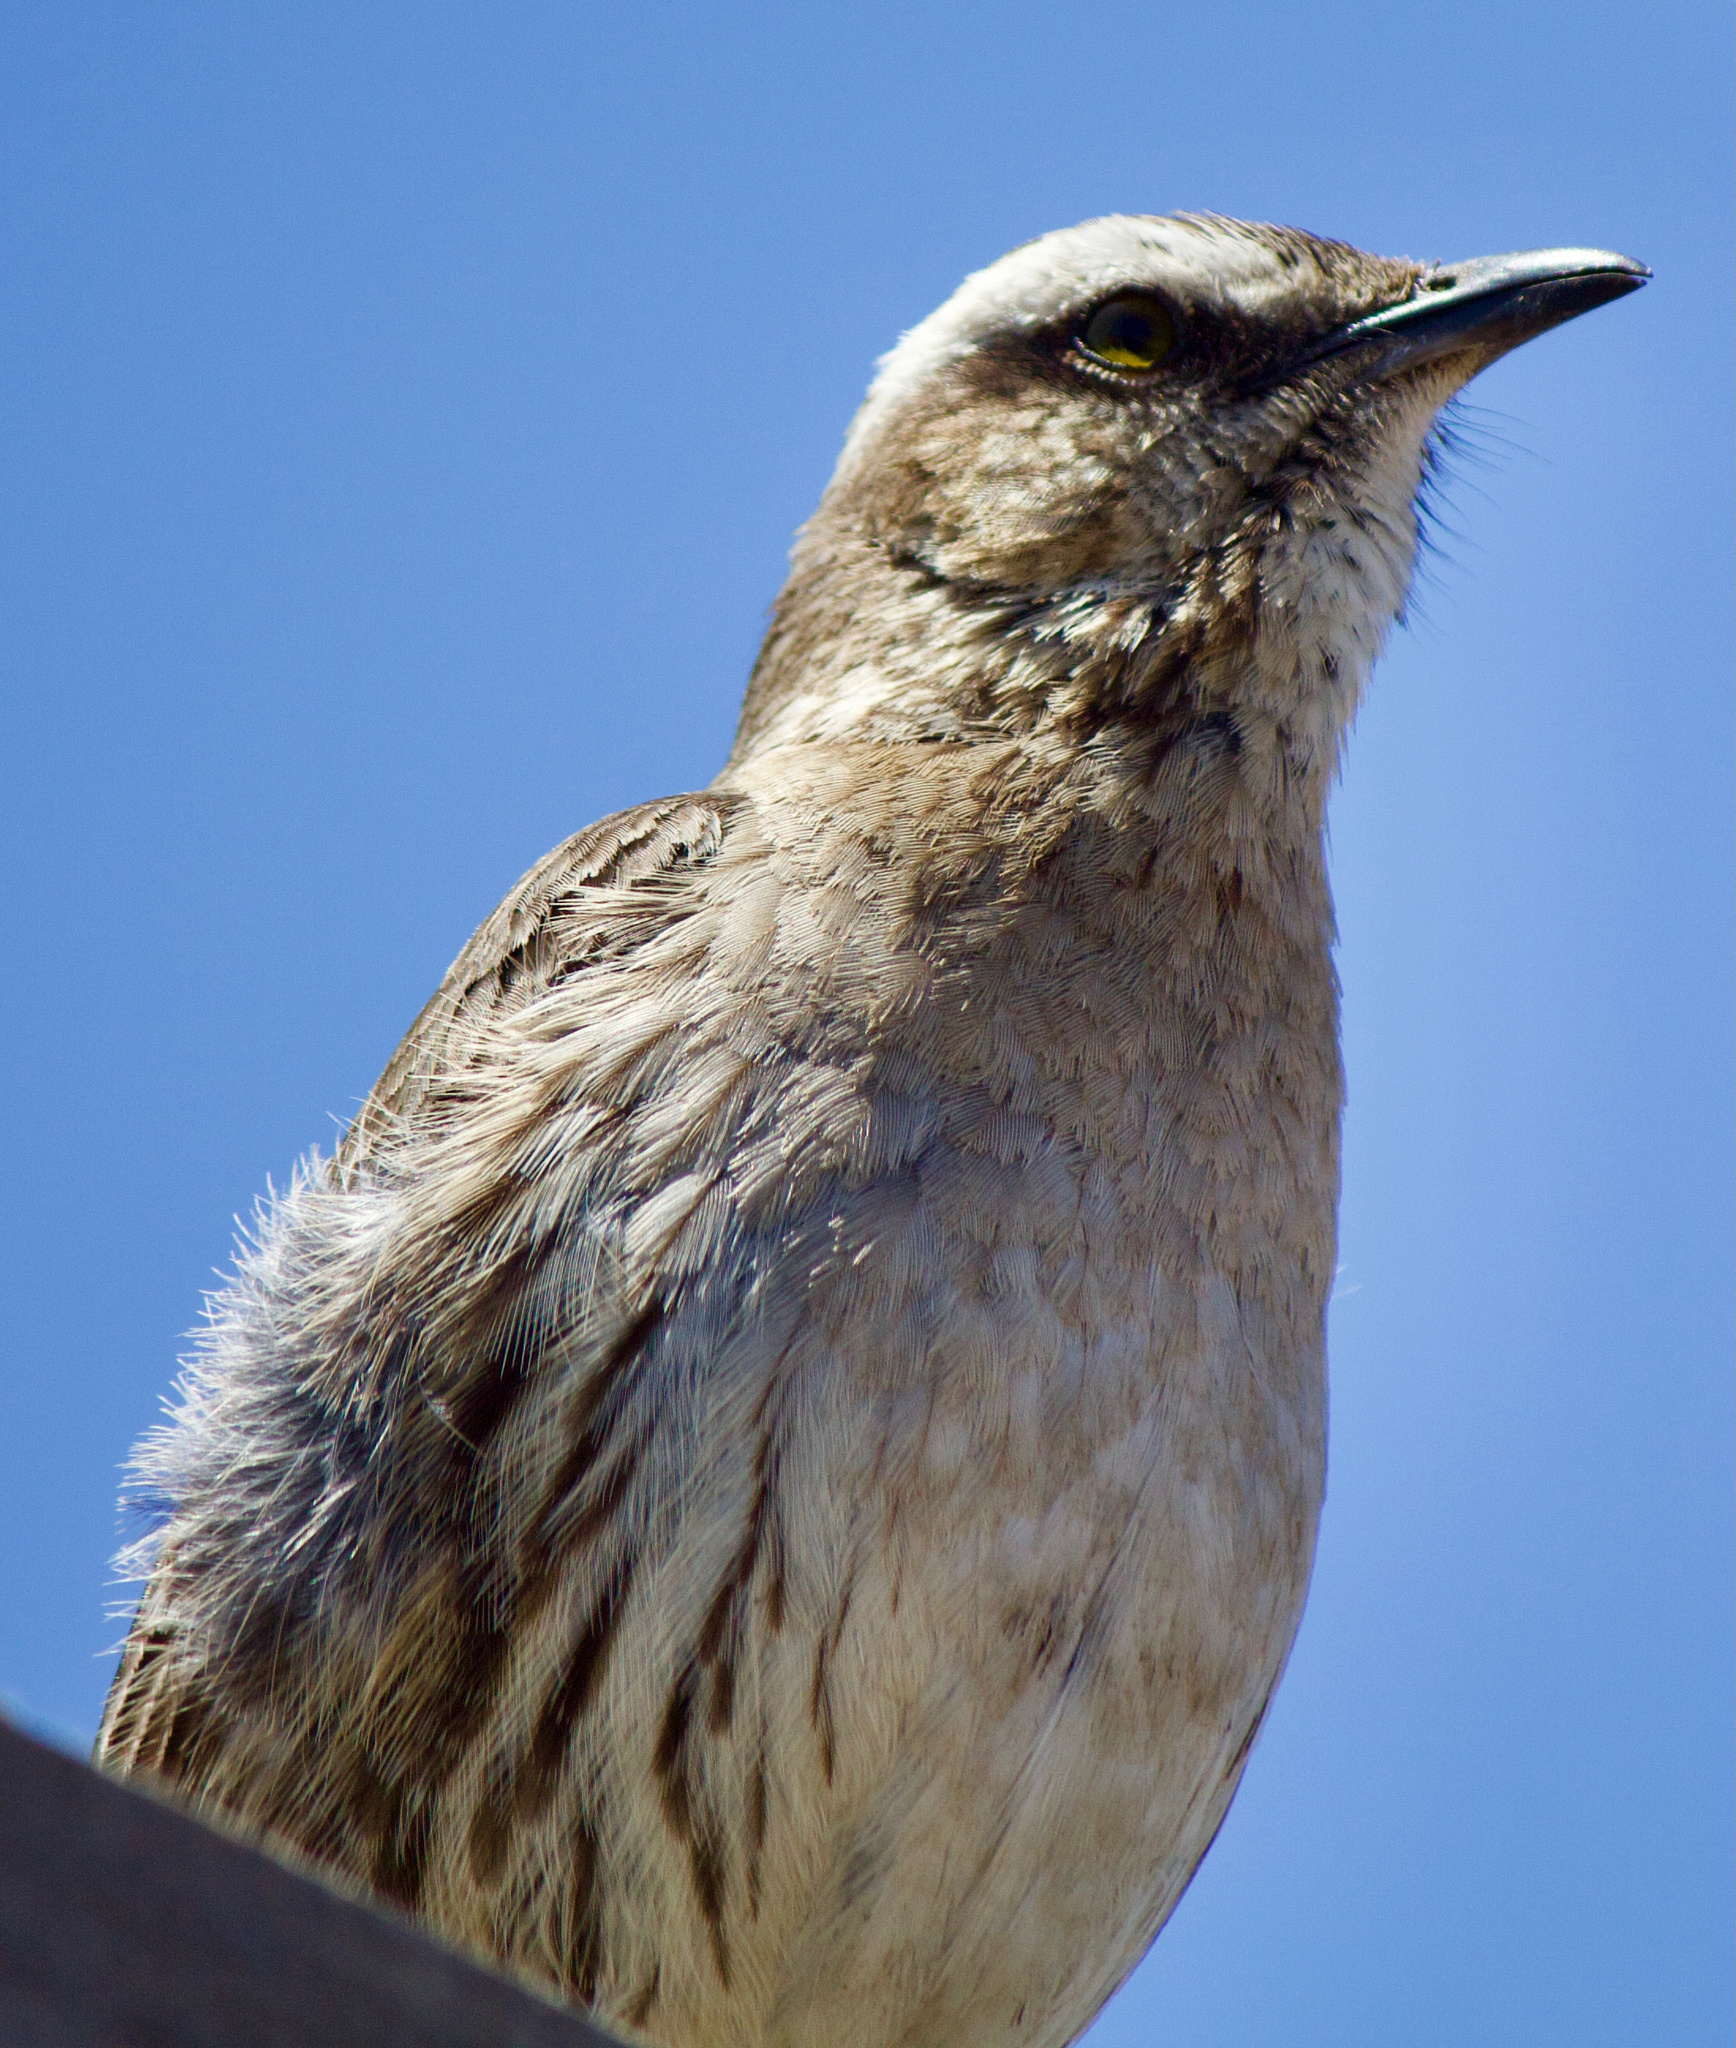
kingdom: Animalia
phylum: Chordata
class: Aves
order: Passeriformes
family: Mimidae
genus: Mimus
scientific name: Mimus thenca
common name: Chilean mockingbird
